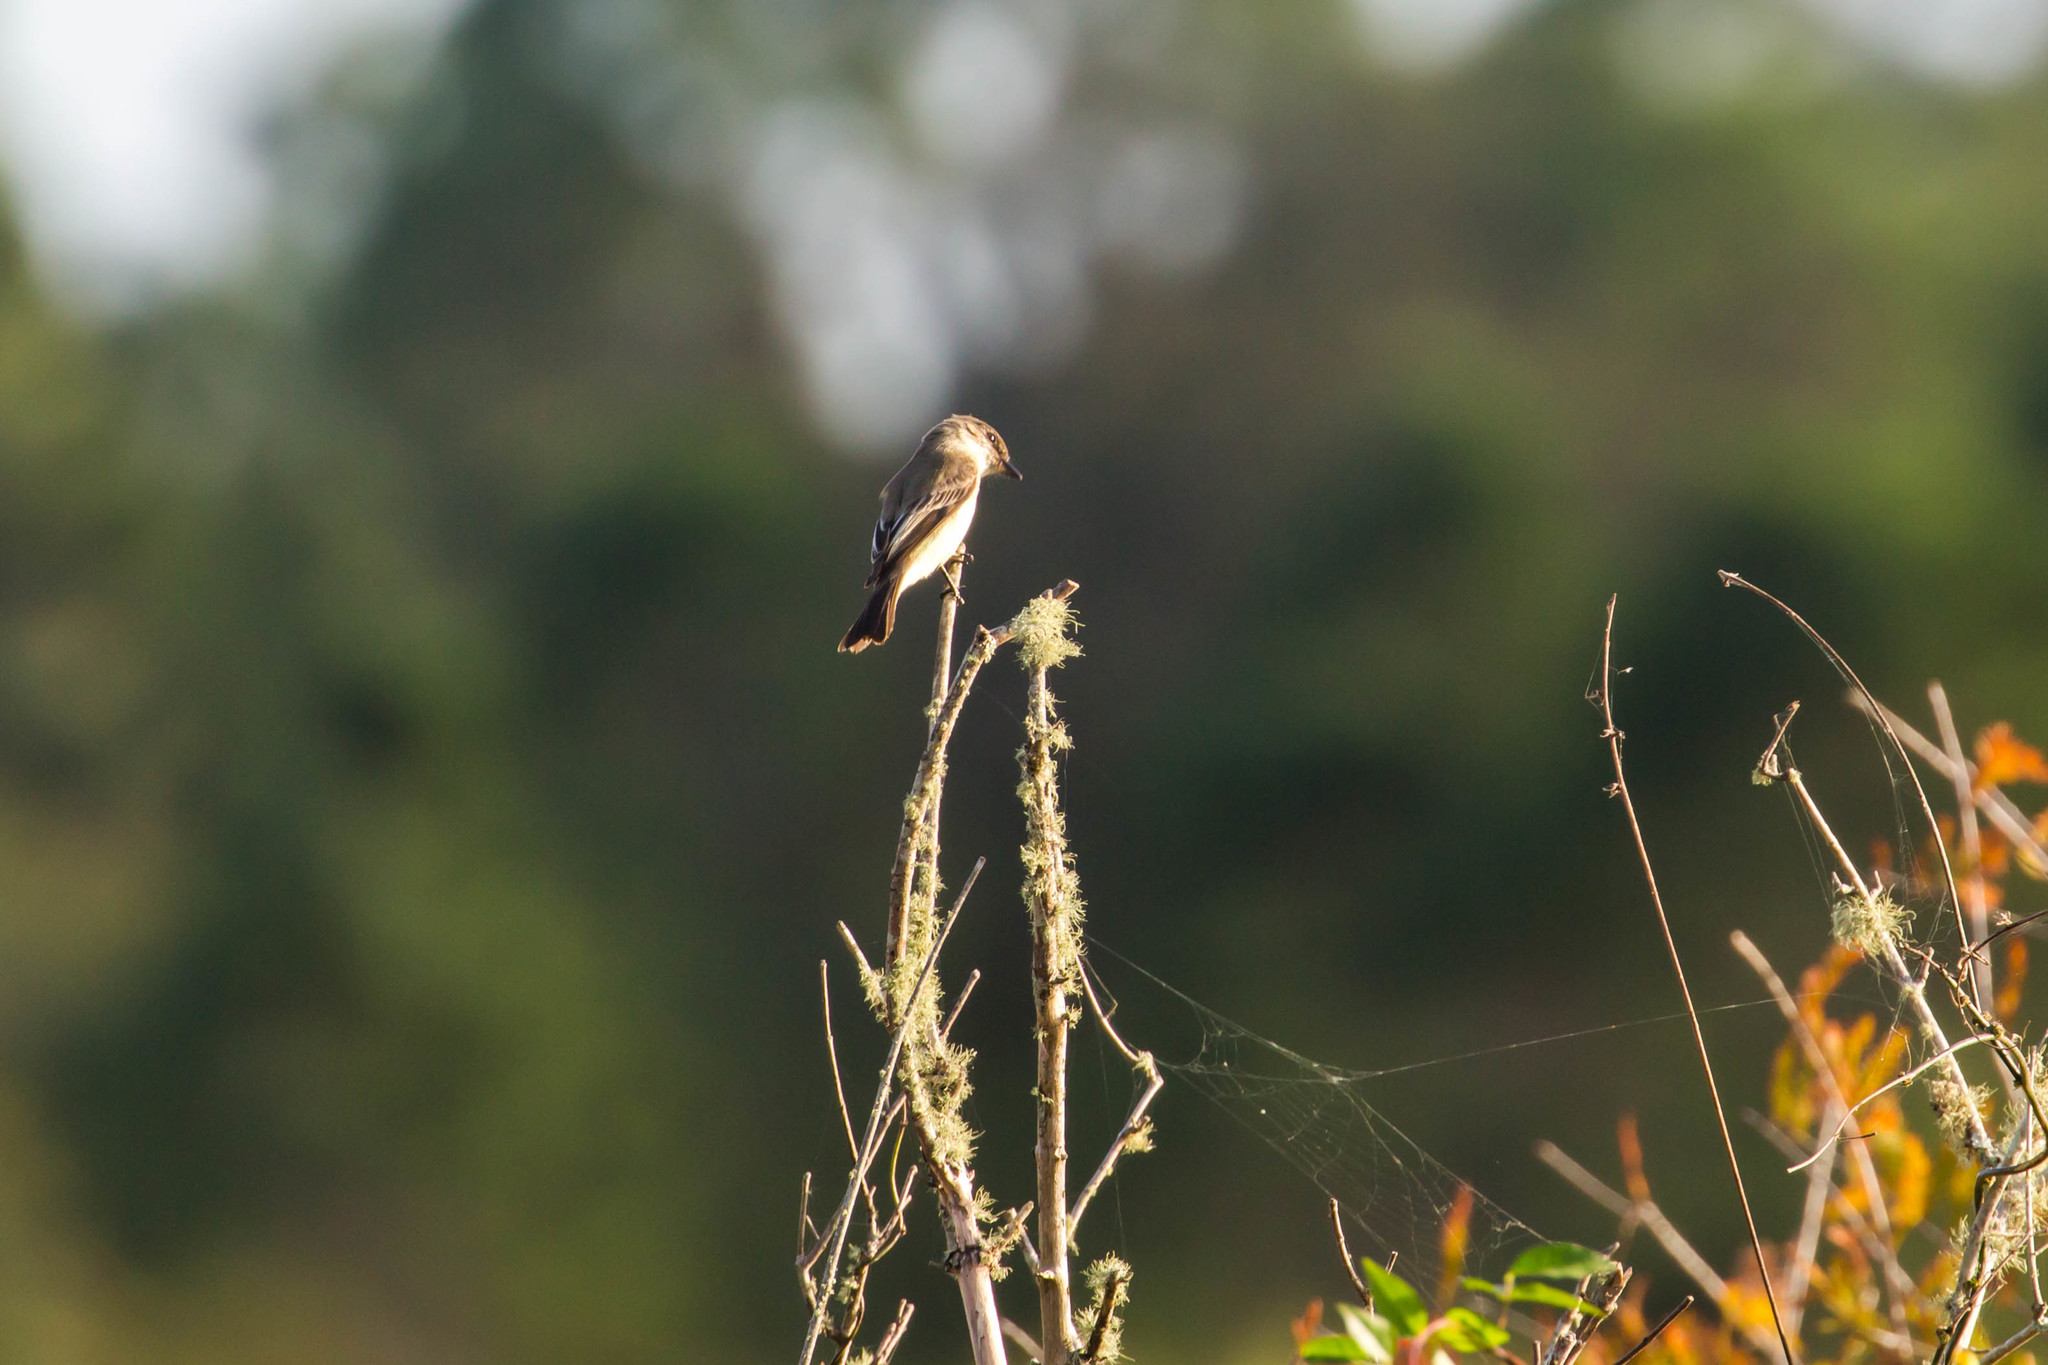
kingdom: Animalia
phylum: Chordata
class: Aves
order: Passeriformes
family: Tyrannidae
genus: Sayornis
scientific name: Sayornis phoebe
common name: Eastern phoebe
